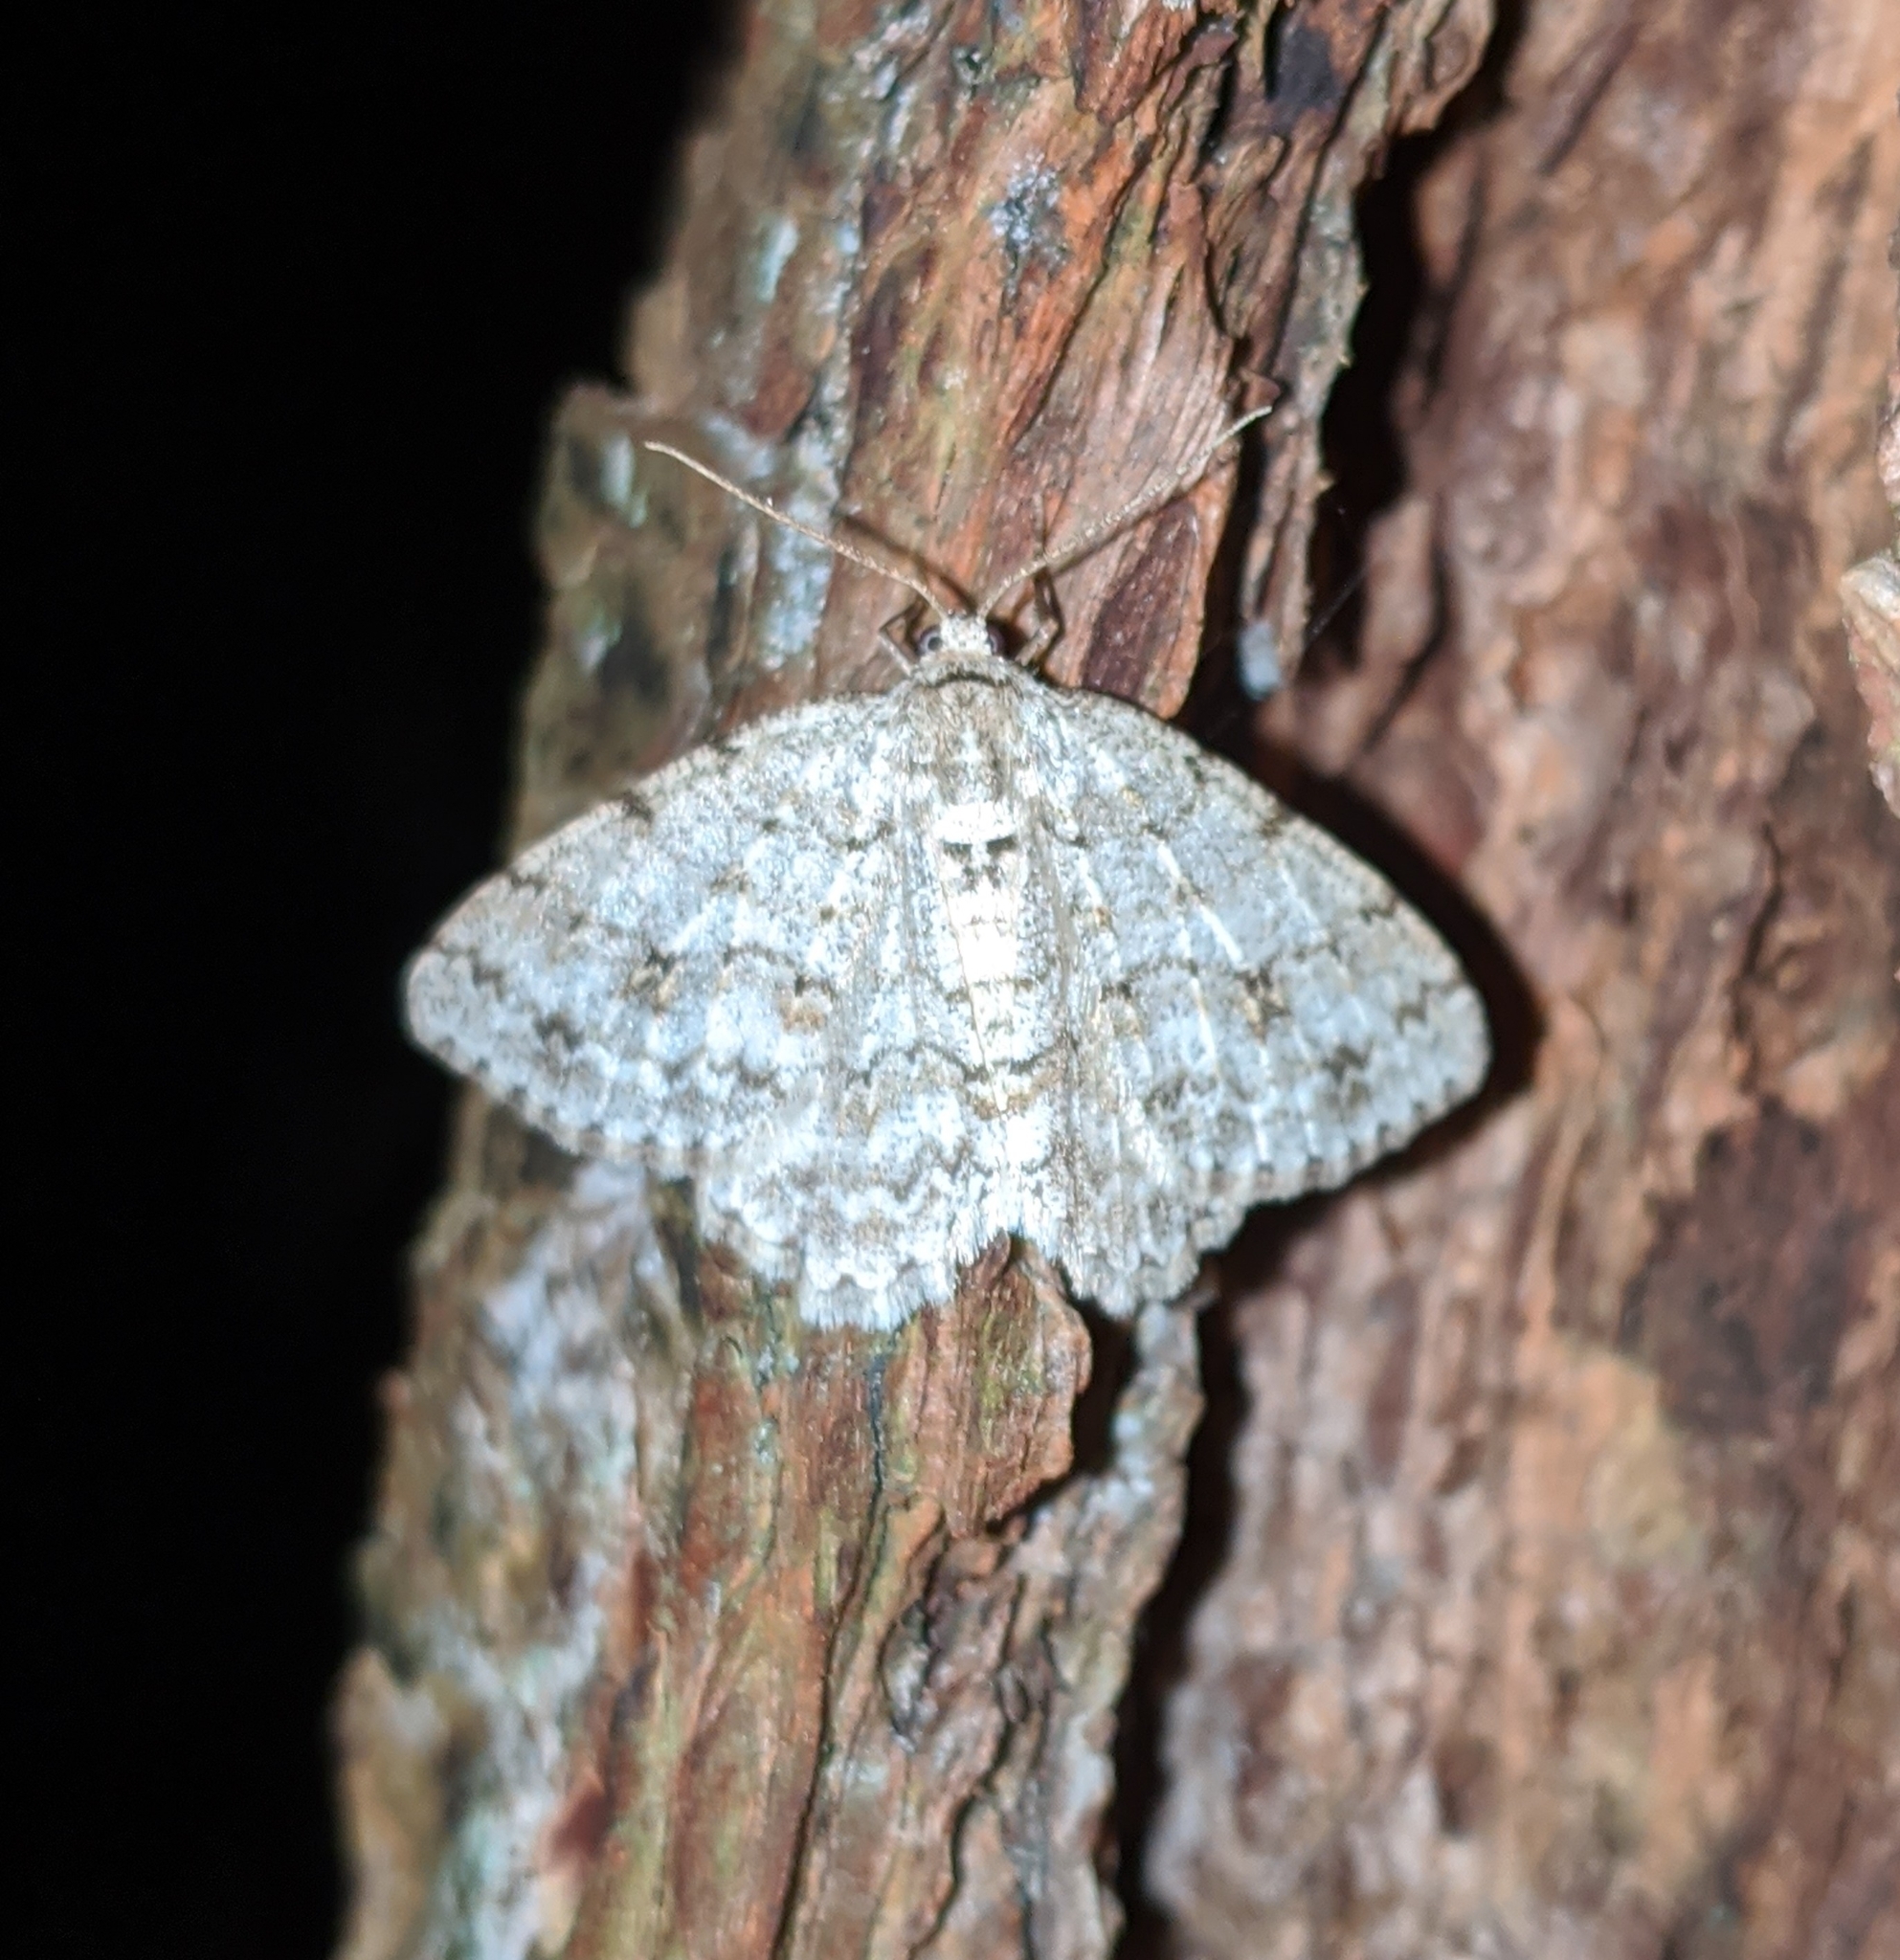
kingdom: Animalia
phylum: Arthropoda
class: Insecta
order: Lepidoptera
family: Geometridae
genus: Ectropis
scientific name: Ectropis crepuscularia
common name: Engrailed
